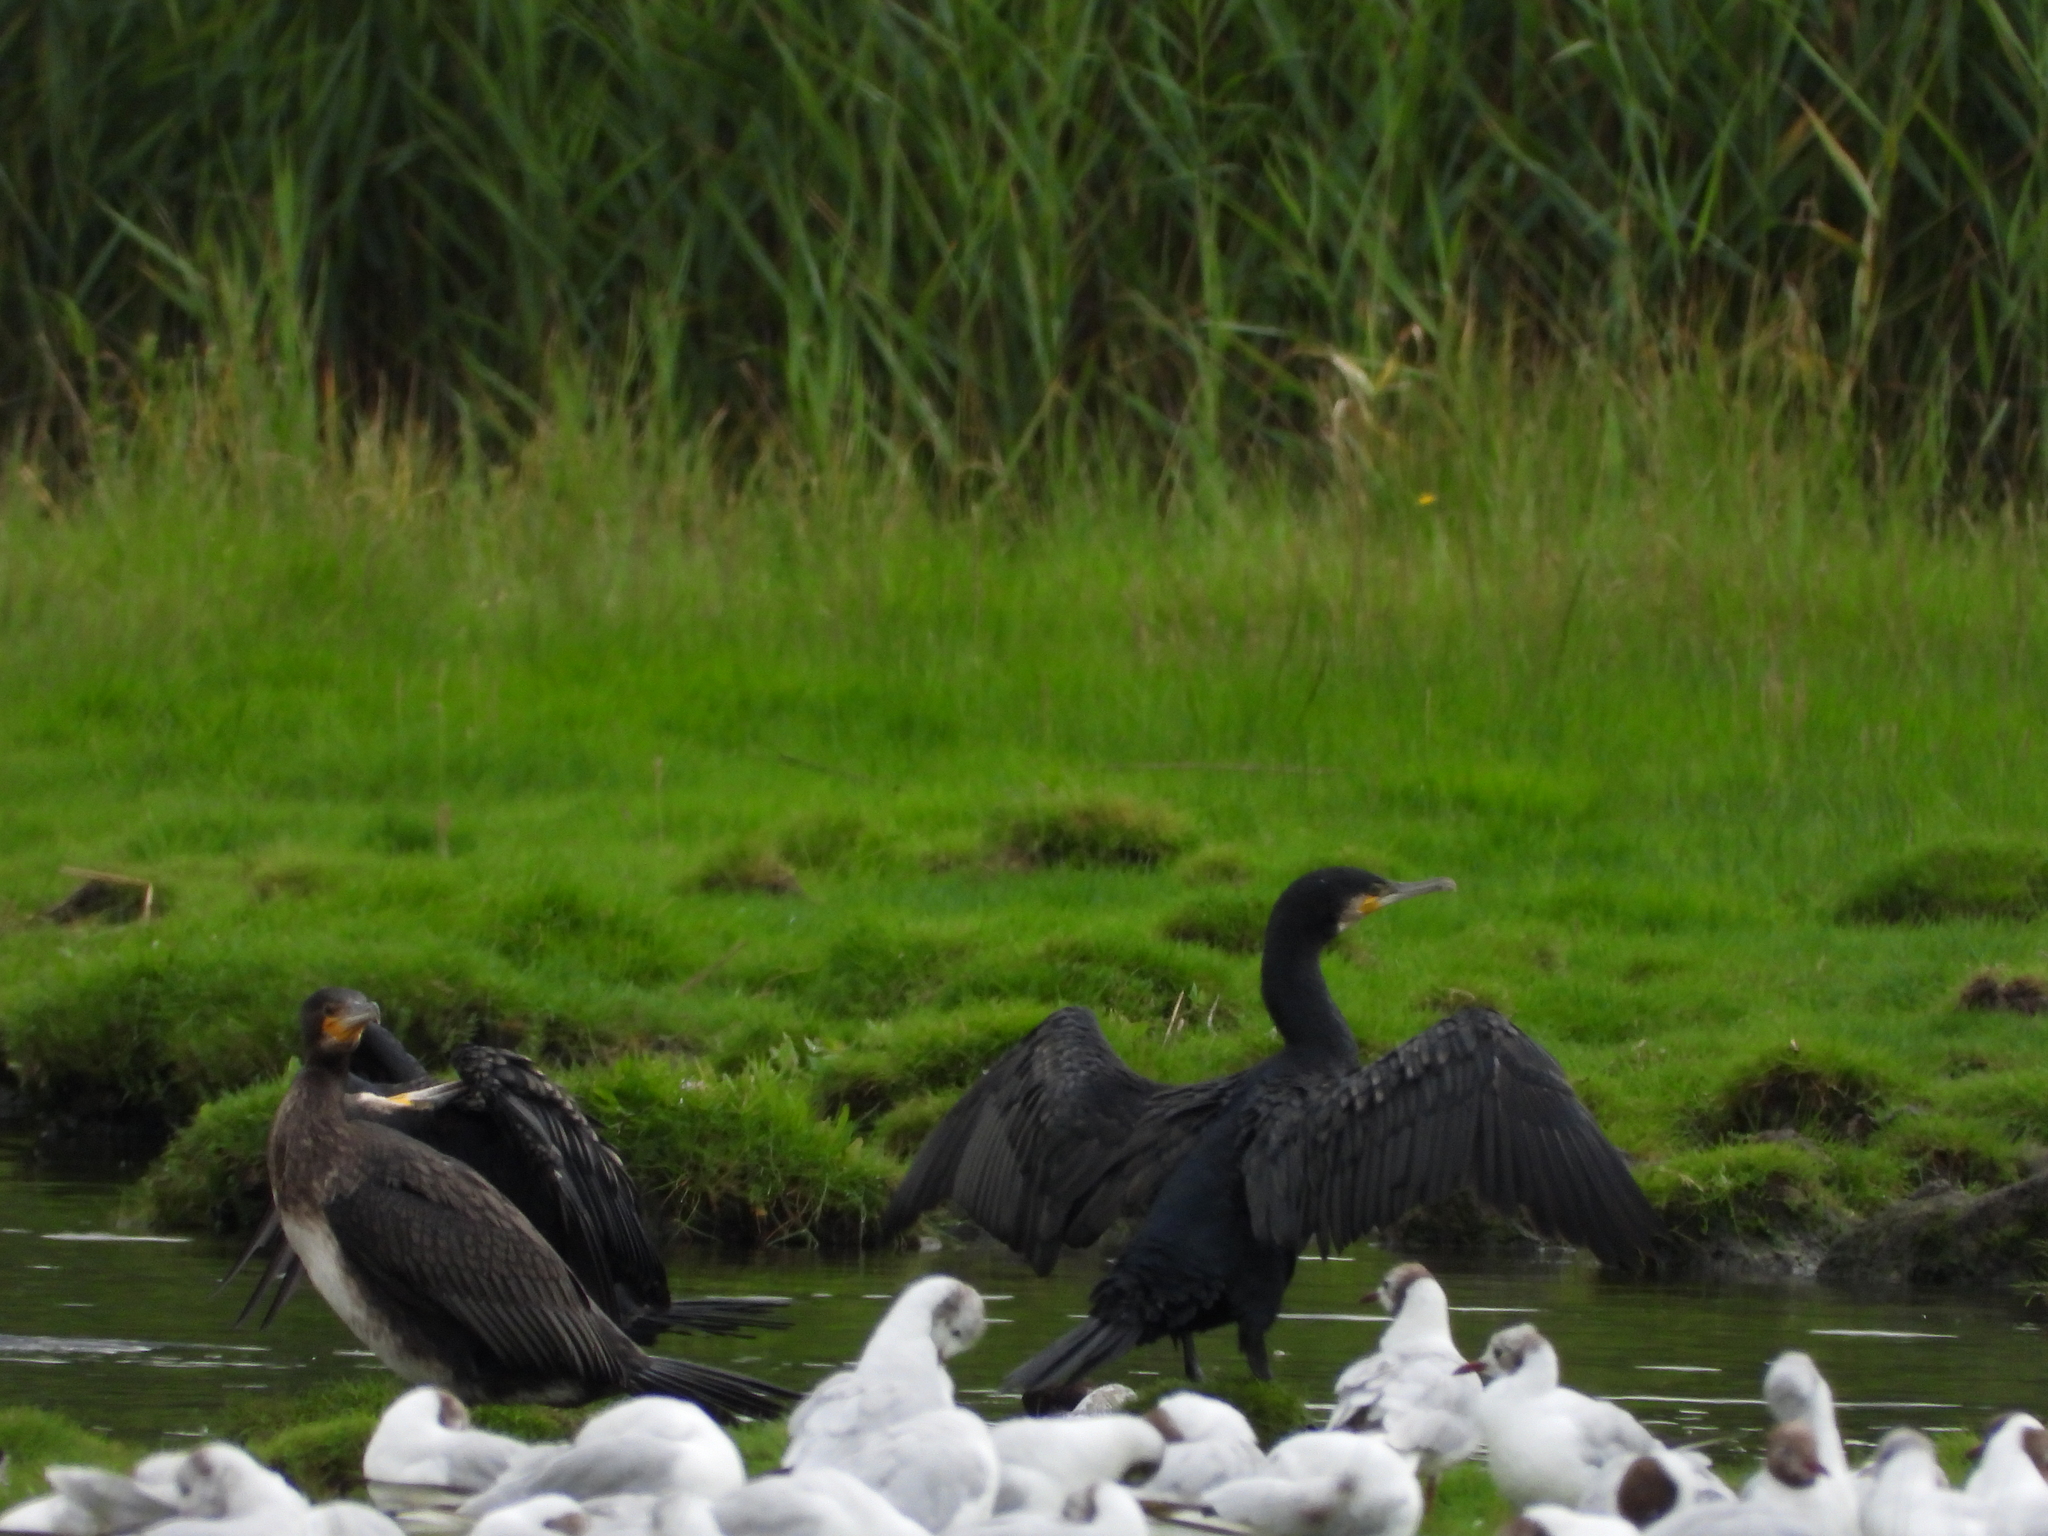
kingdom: Animalia
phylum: Chordata
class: Aves
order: Suliformes
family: Phalacrocoracidae
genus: Phalacrocorax
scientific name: Phalacrocorax carbo
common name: Great cormorant
